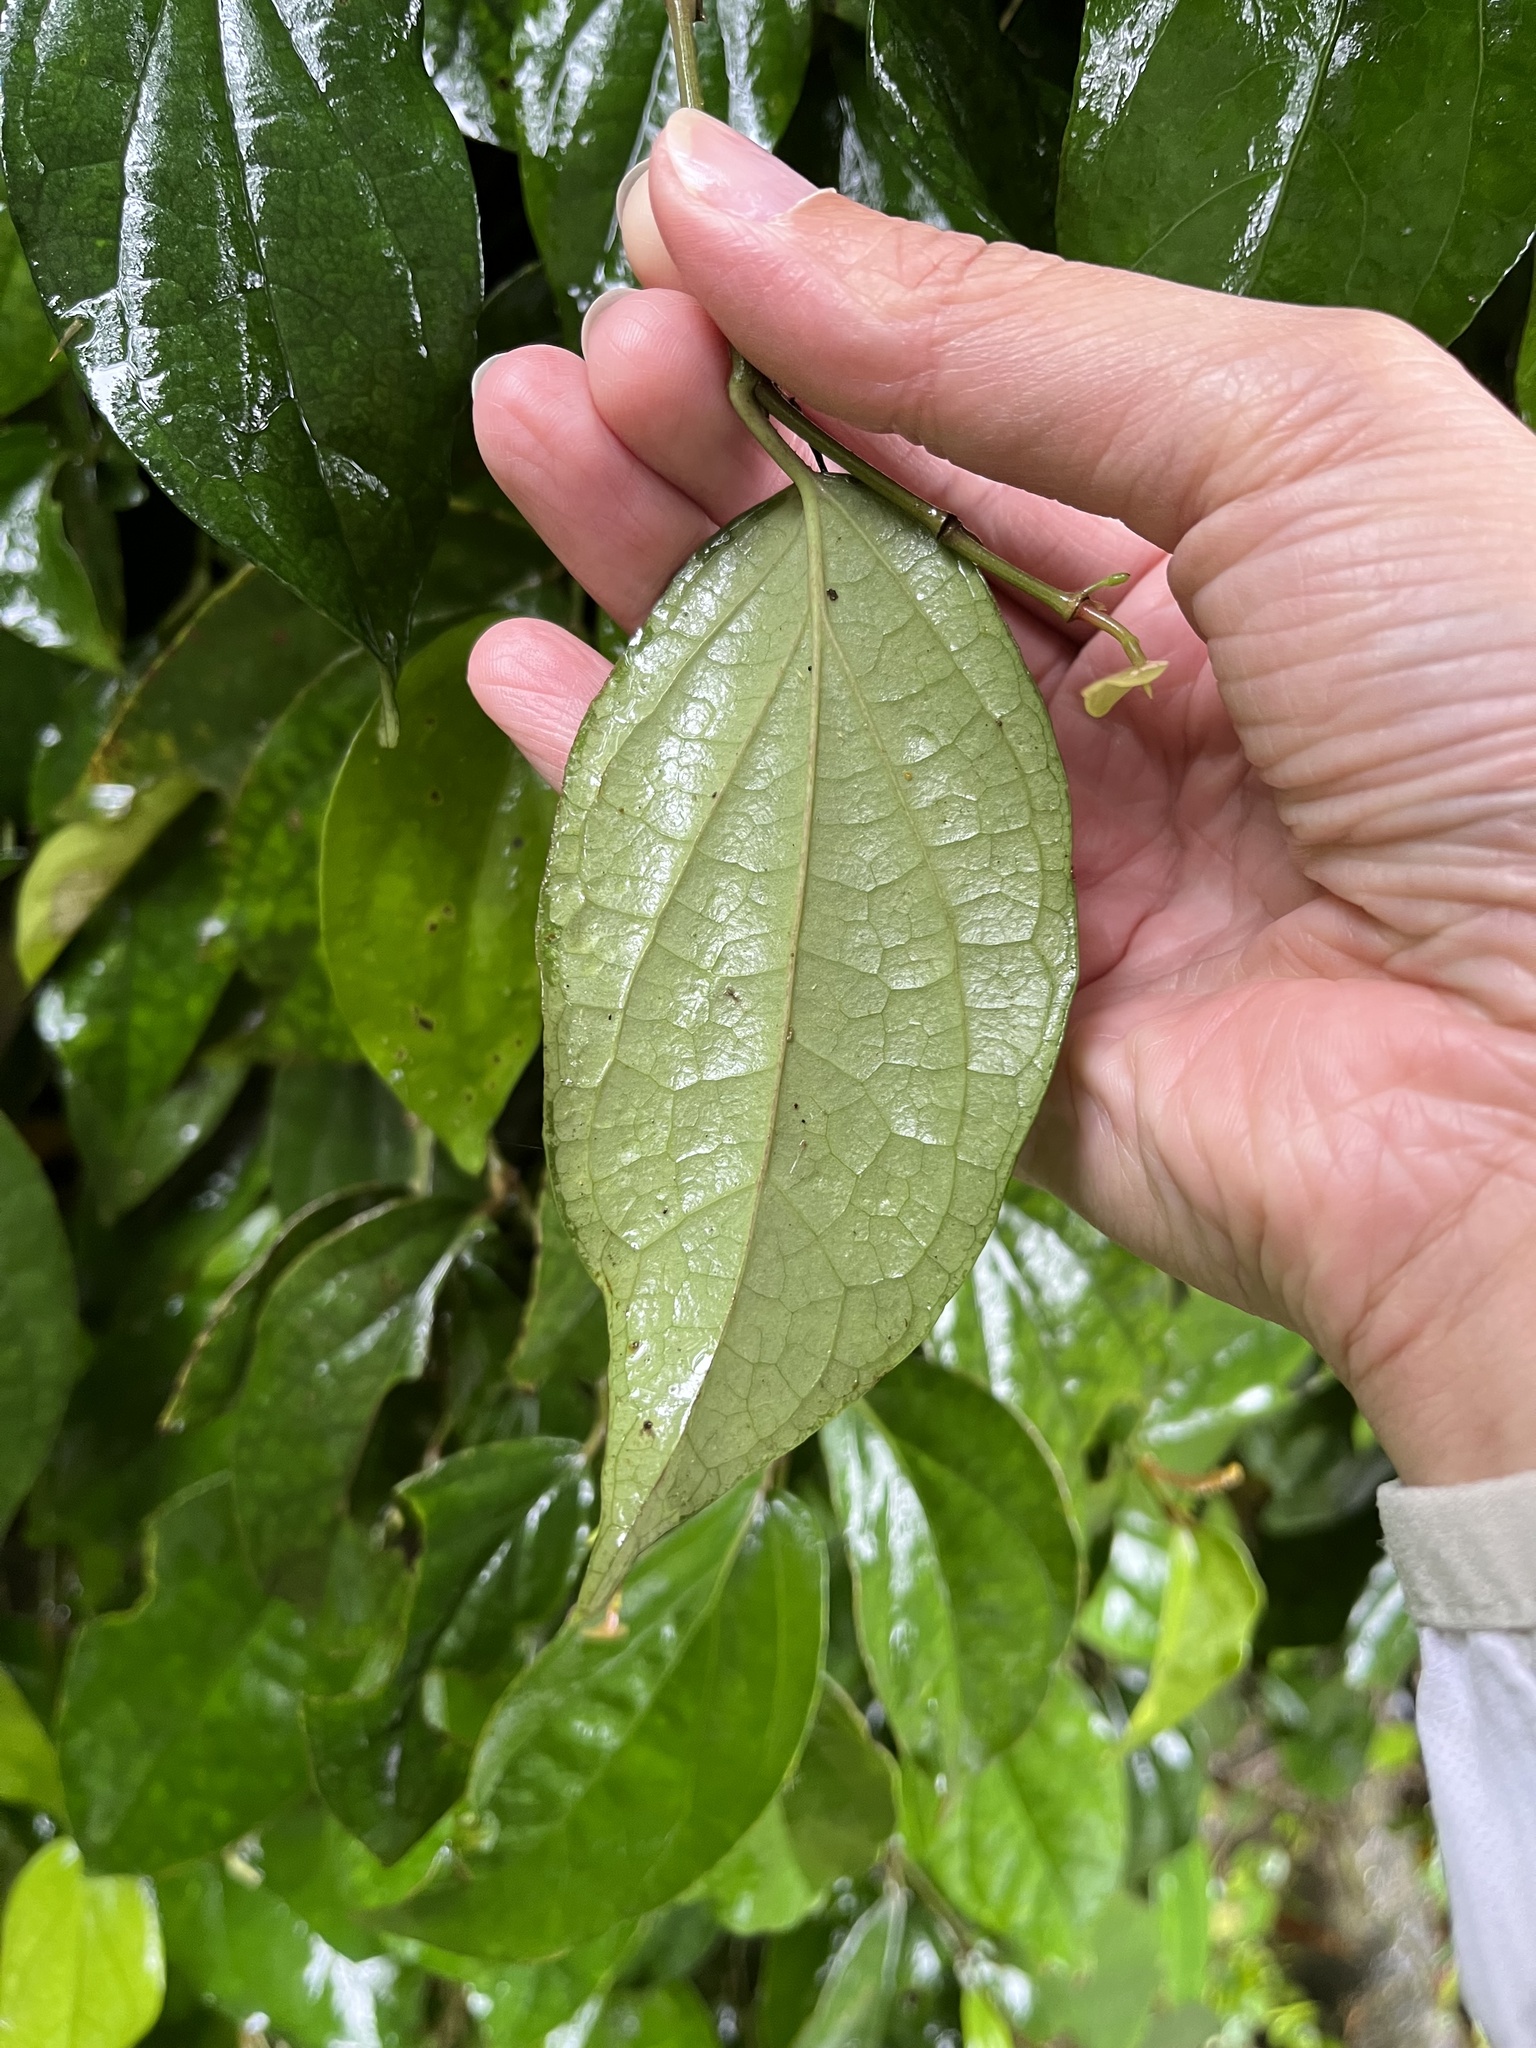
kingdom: Plantae
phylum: Tracheophyta
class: Magnoliopsida
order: Piperales
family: Piperaceae
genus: Piper
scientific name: Piper kadsura
